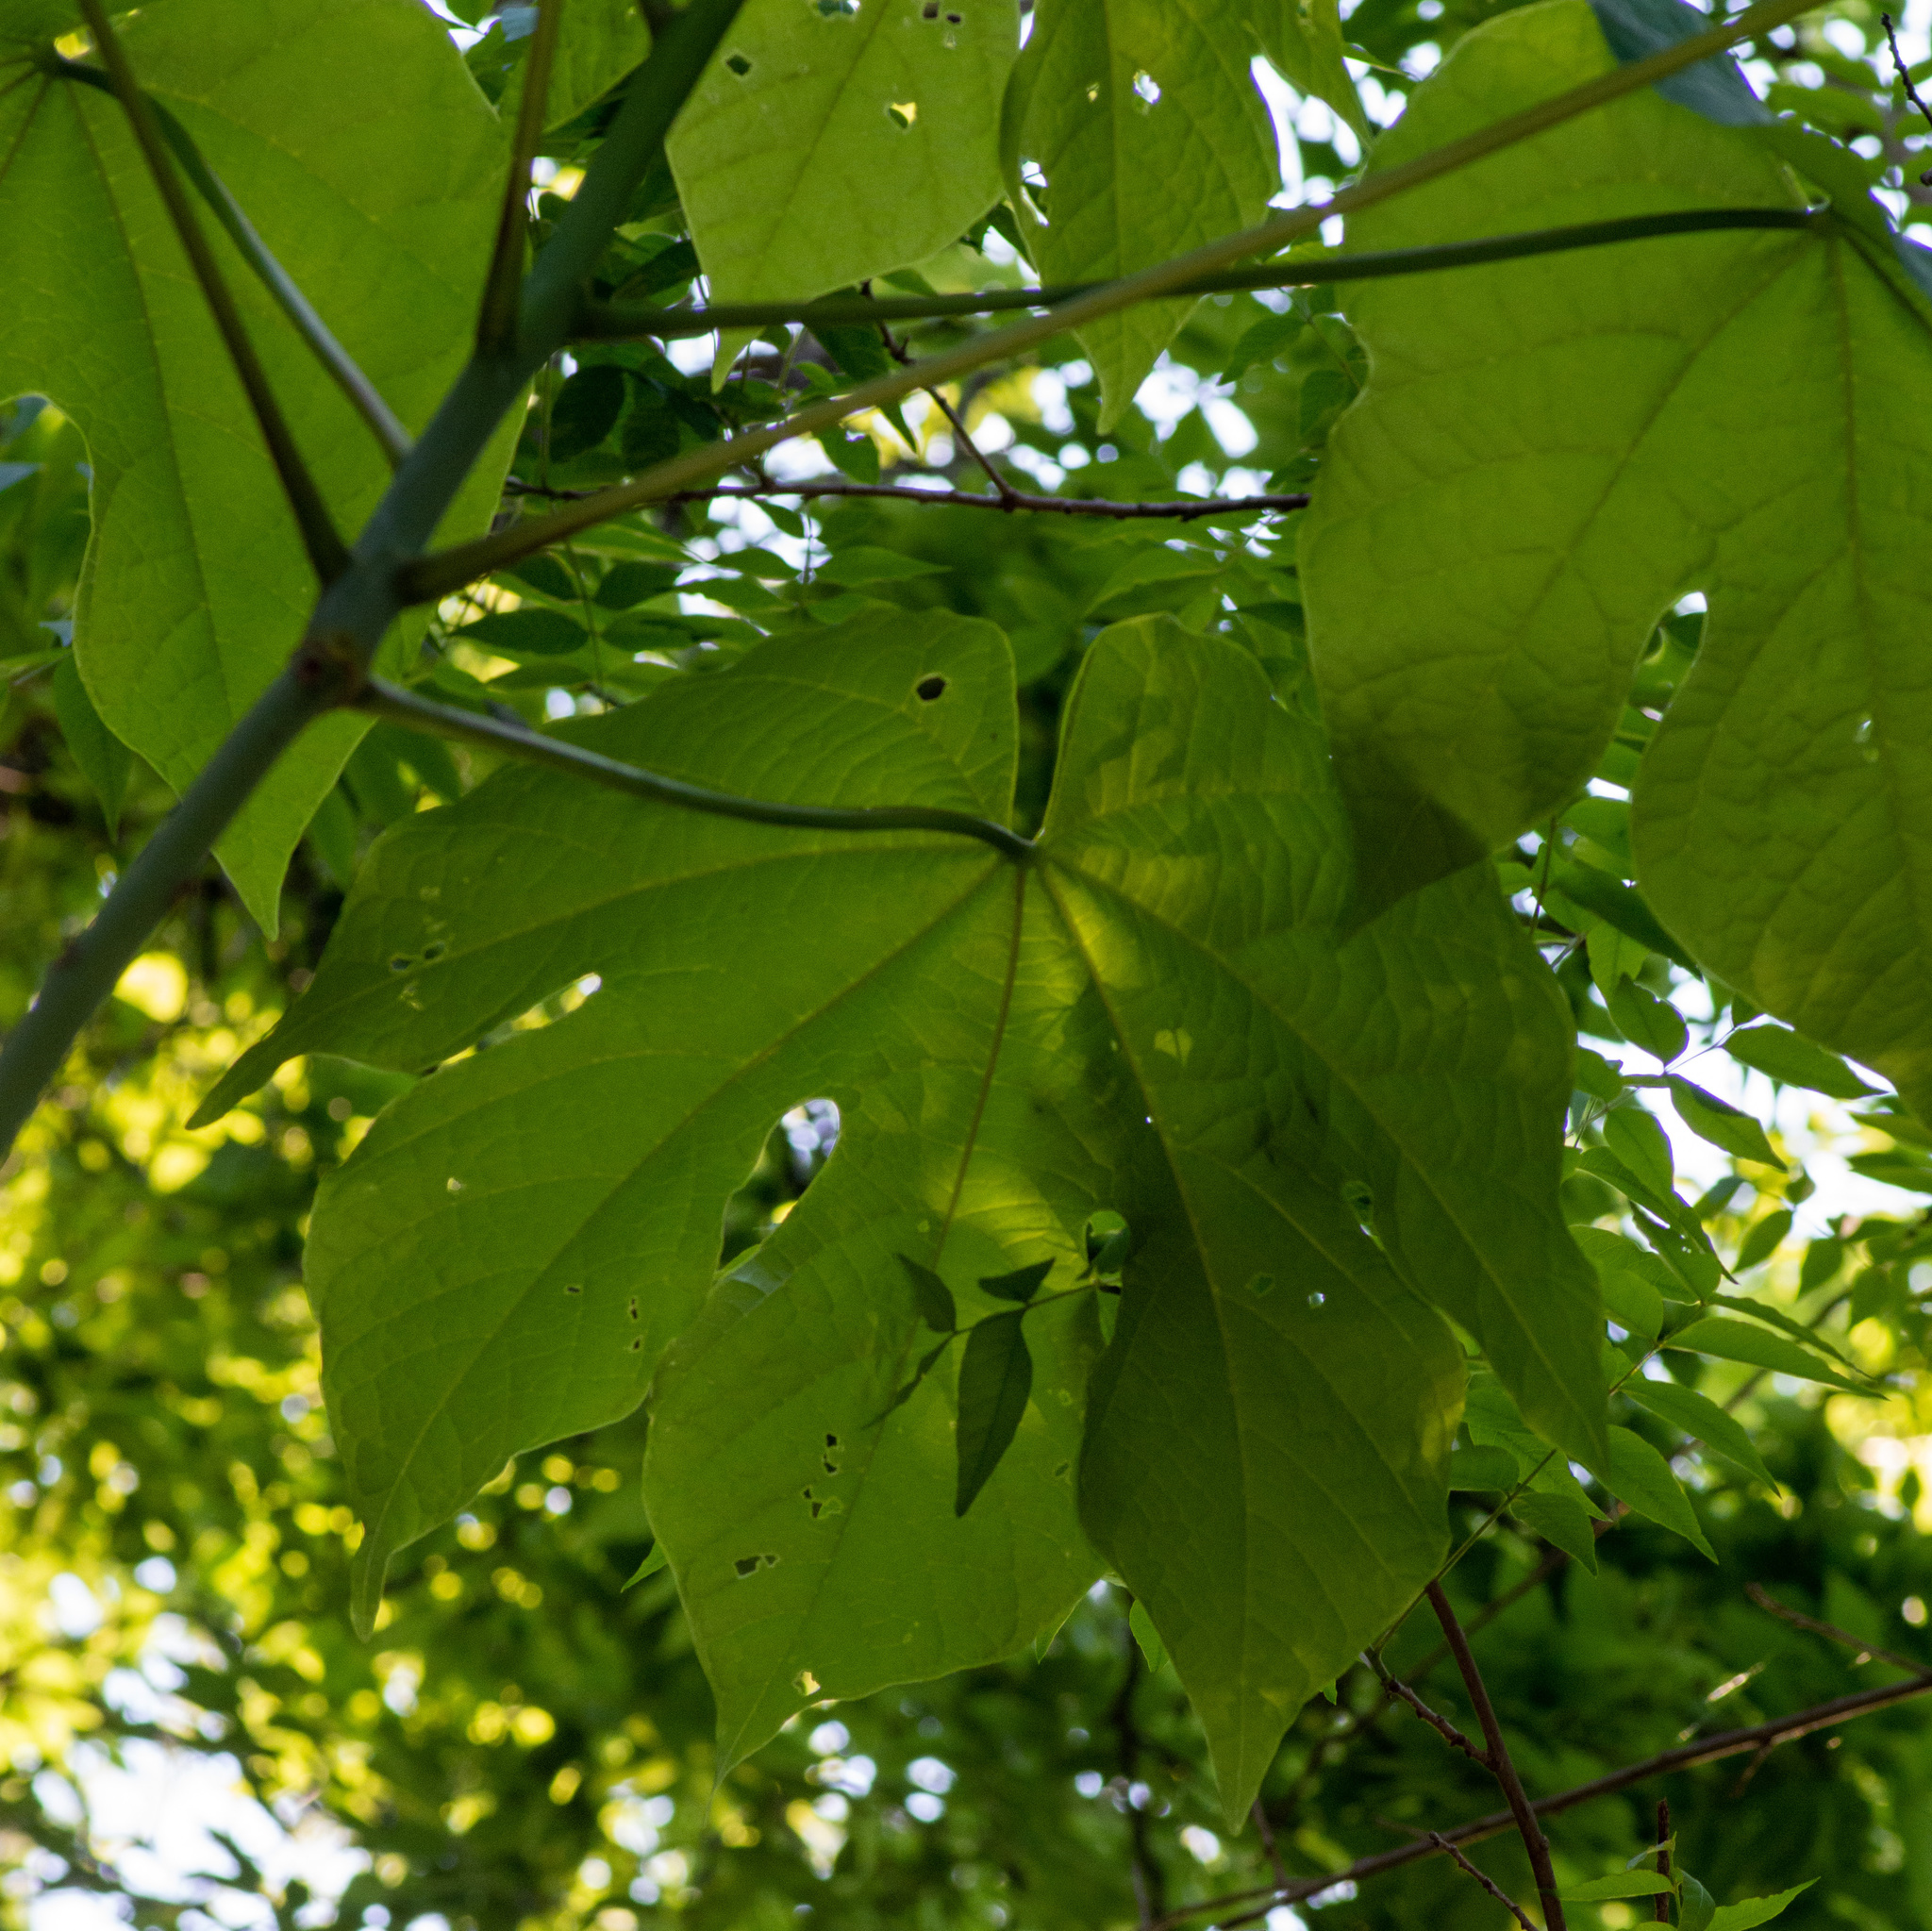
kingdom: Plantae
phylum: Tracheophyta
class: Magnoliopsida
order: Malvales
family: Malvaceae
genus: Firmiana
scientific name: Firmiana simplex
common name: Chinese parasoltree
